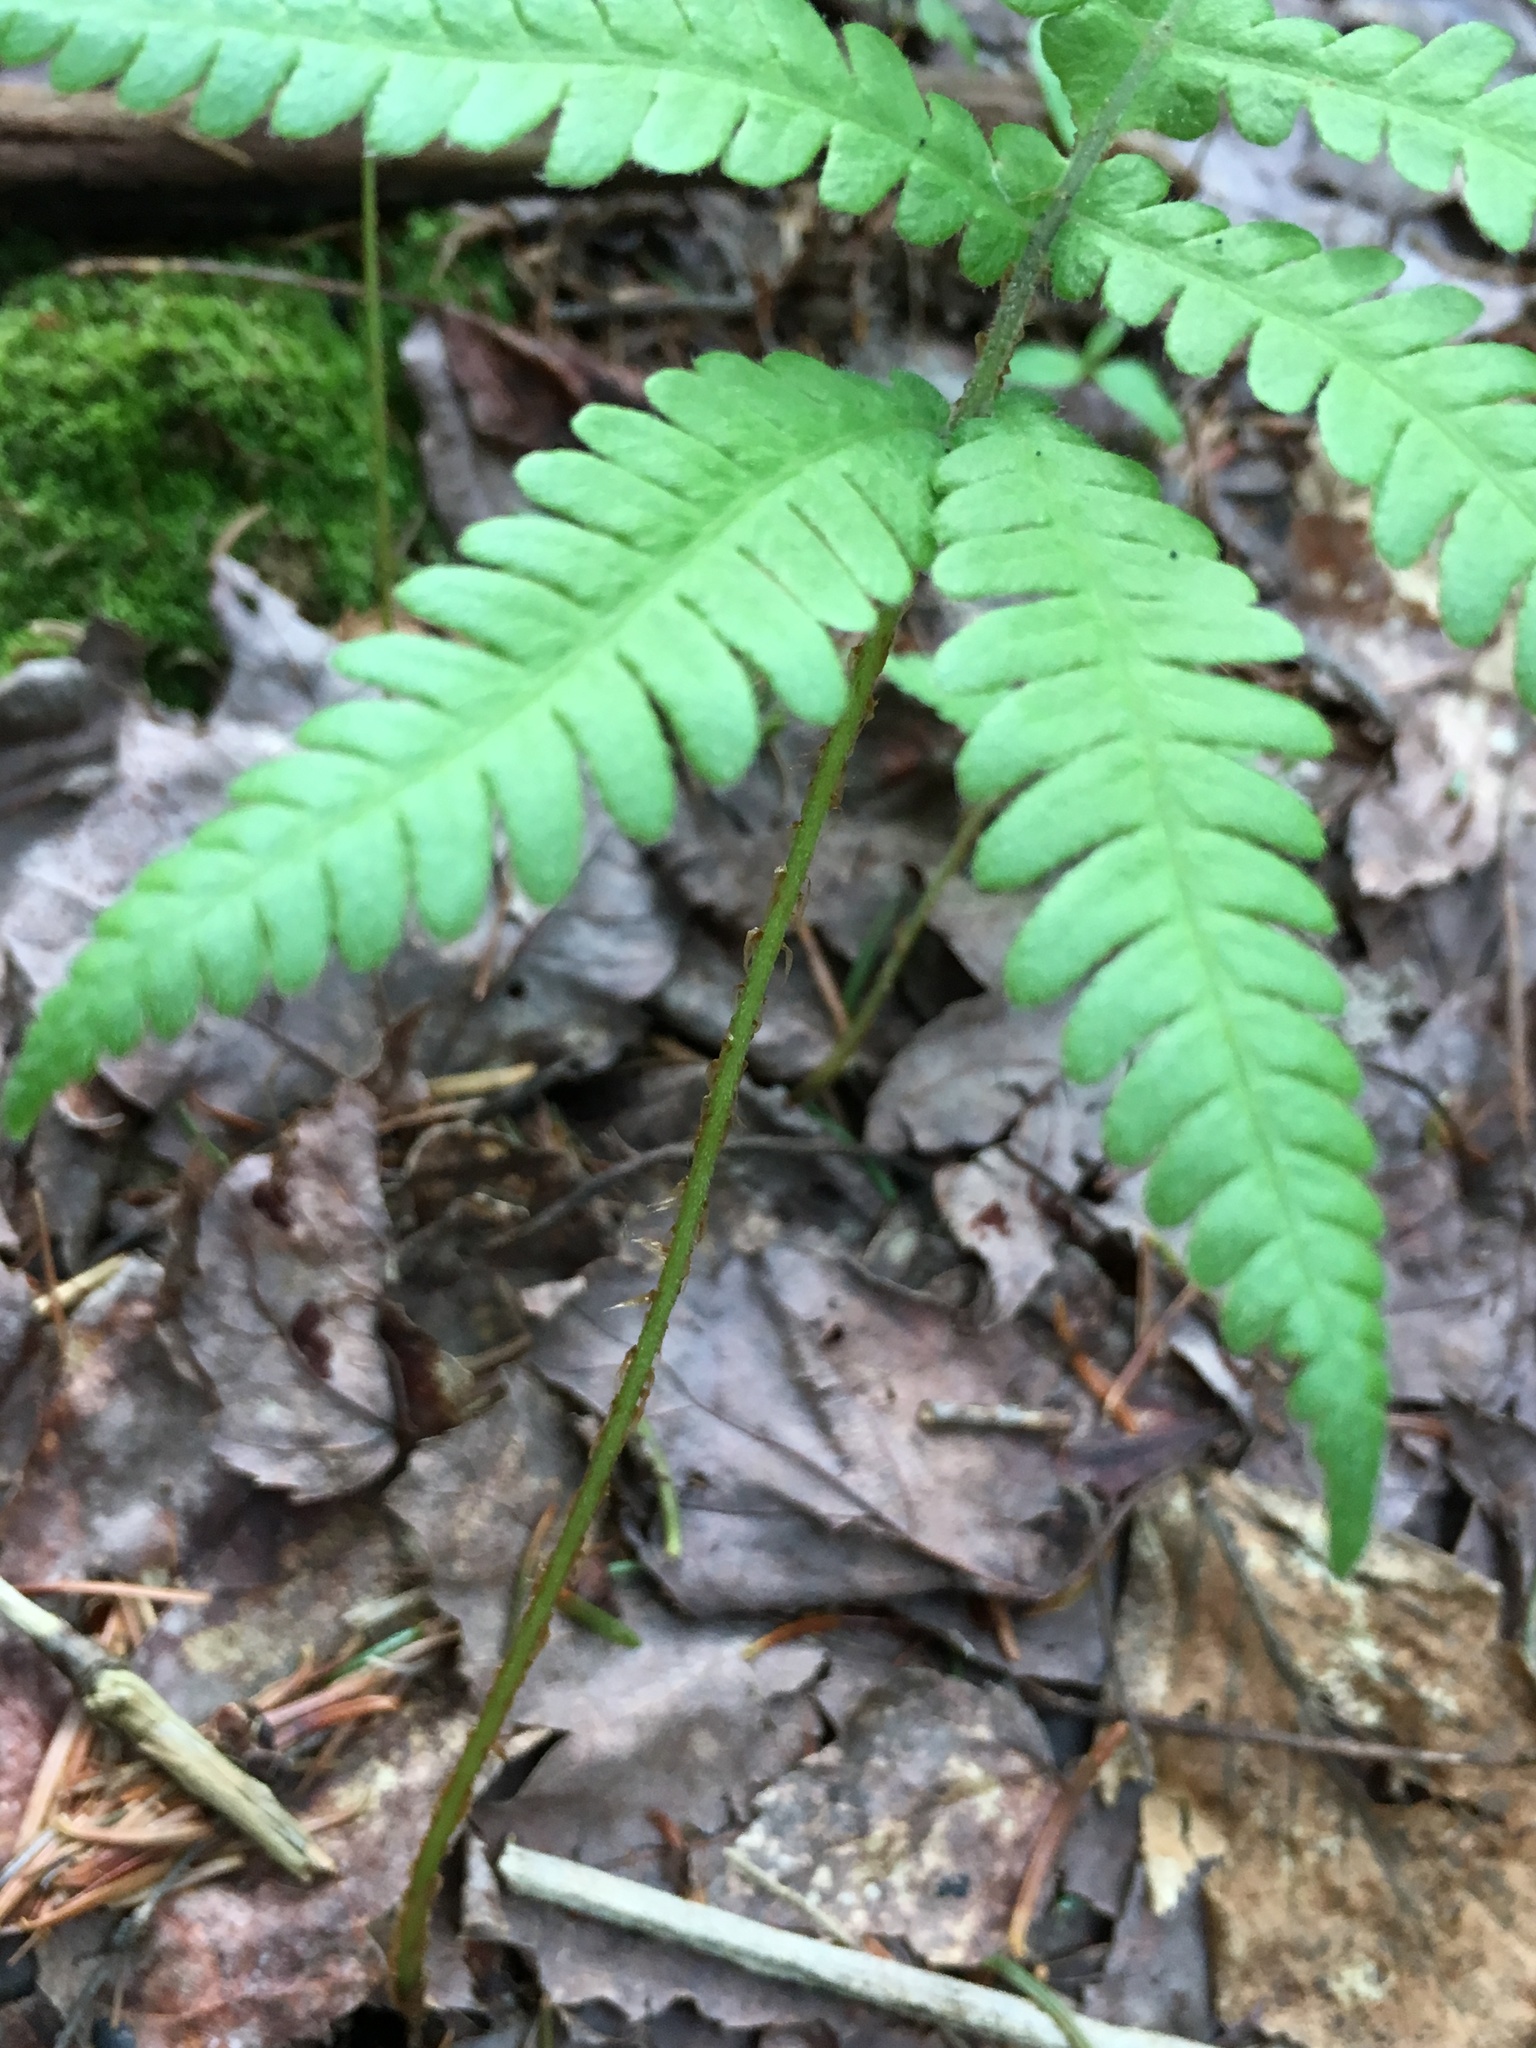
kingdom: Plantae
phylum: Tracheophyta
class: Polypodiopsida
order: Polypodiales
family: Thelypteridaceae
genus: Phegopteris
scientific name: Phegopteris connectilis
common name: Beech fern
